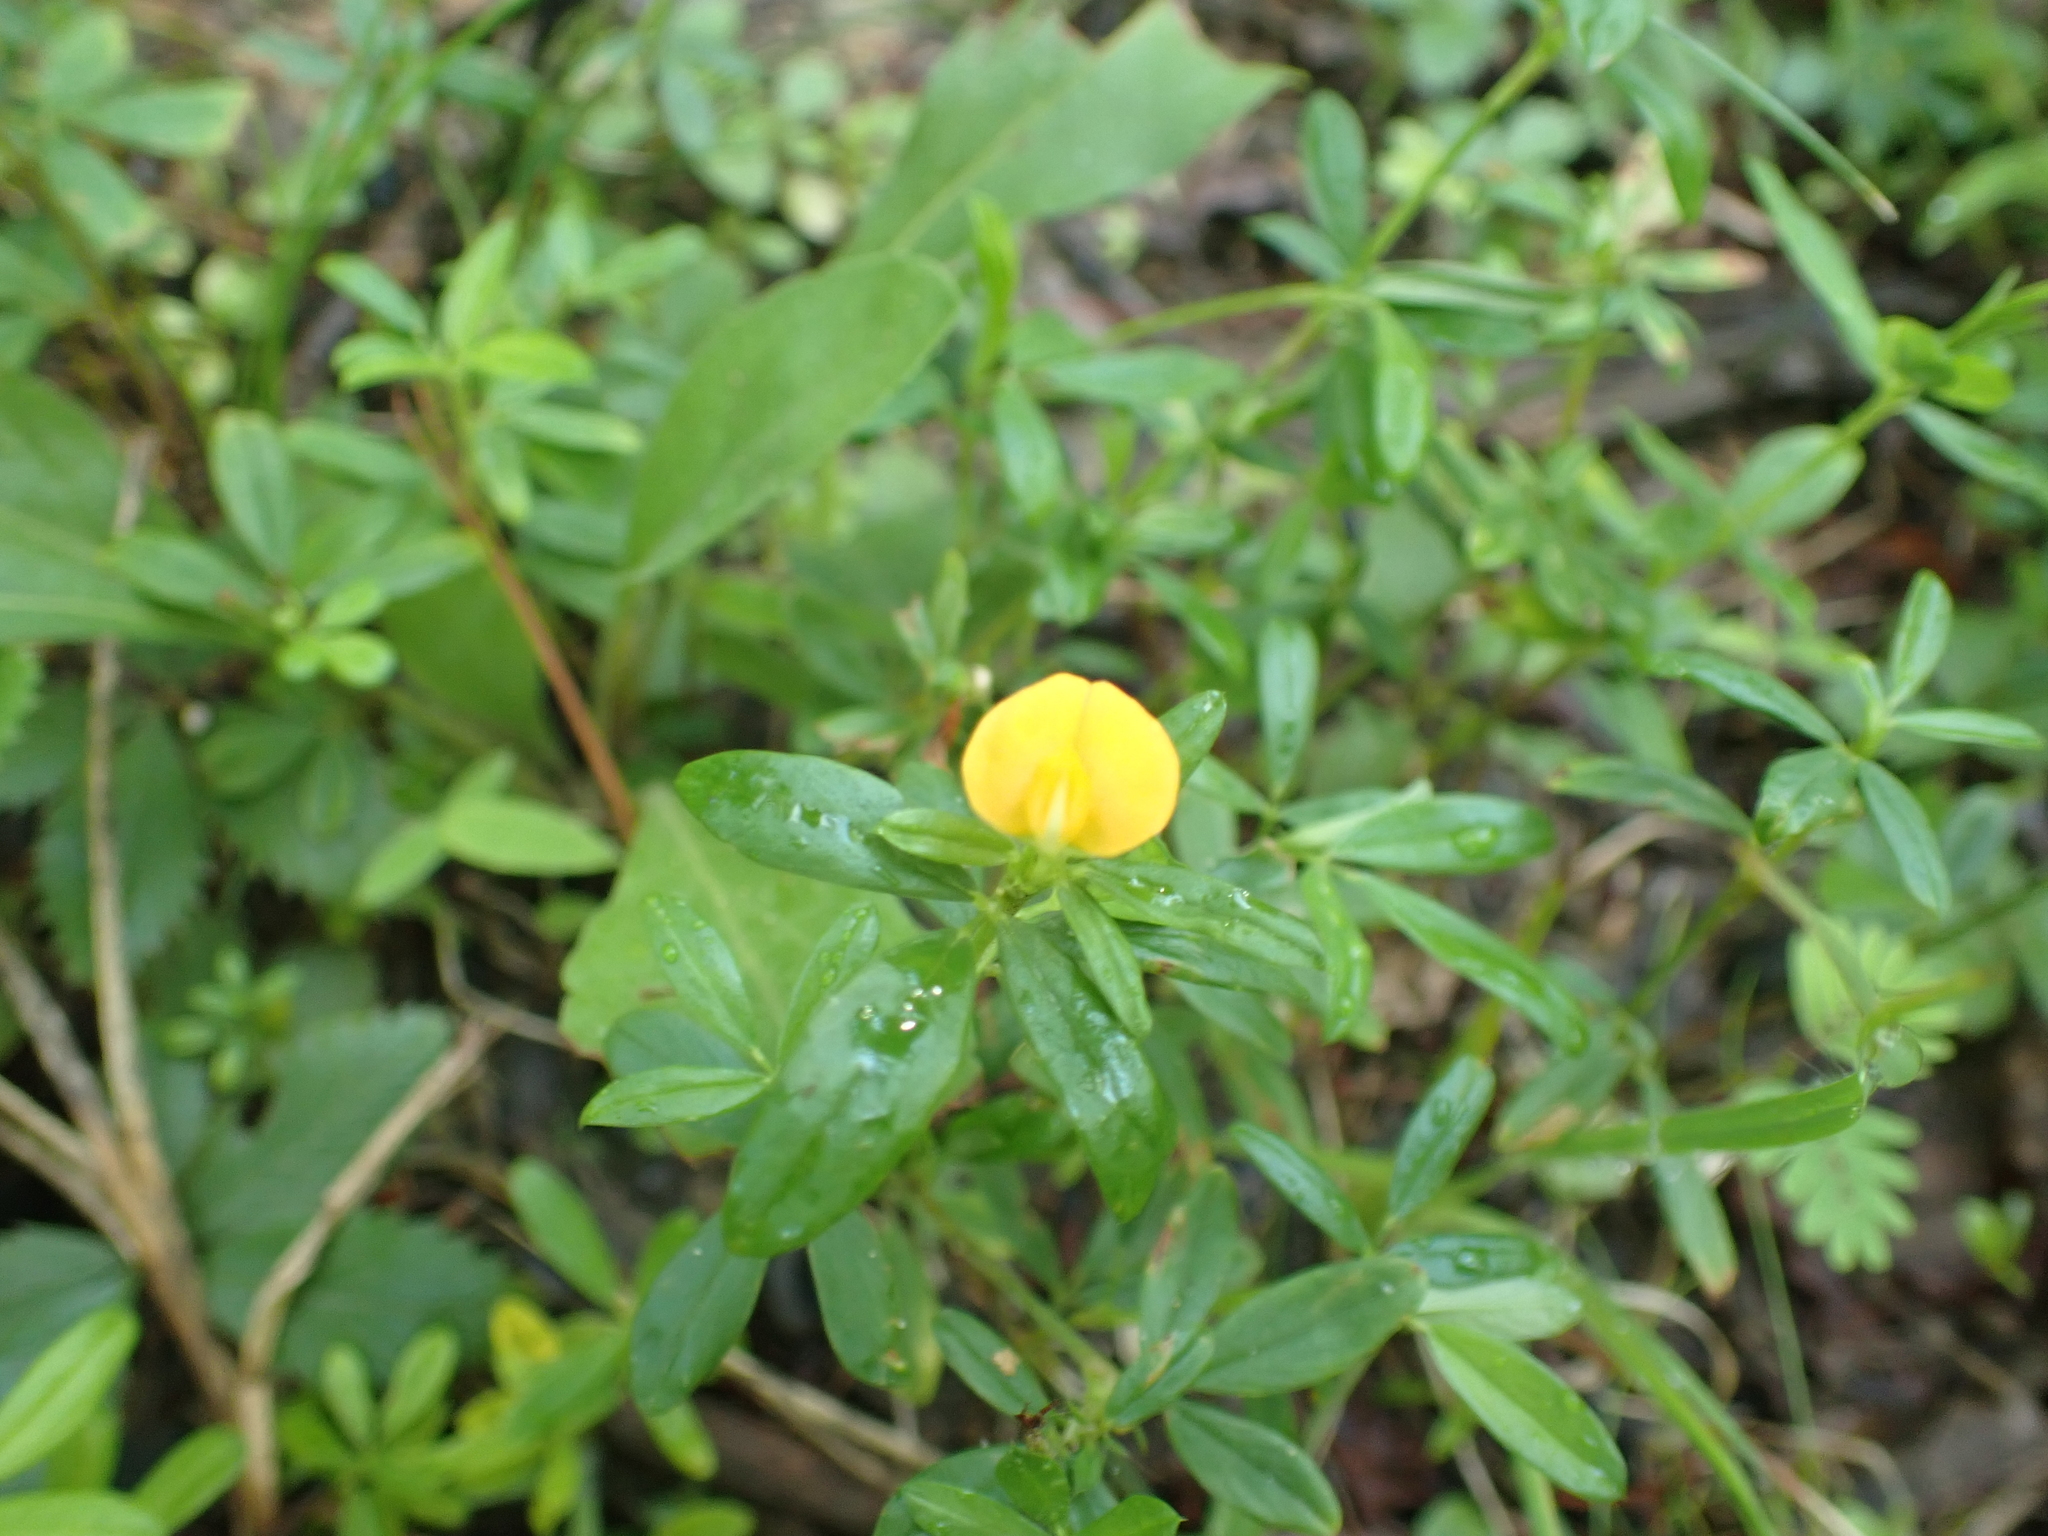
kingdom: Plantae
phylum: Tracheophyta
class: Magnoliopsida
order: Fabales
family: Fabaceae
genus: Stylosanthes
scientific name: Stylosanthes biflora
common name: Two-flower pencil-flower
